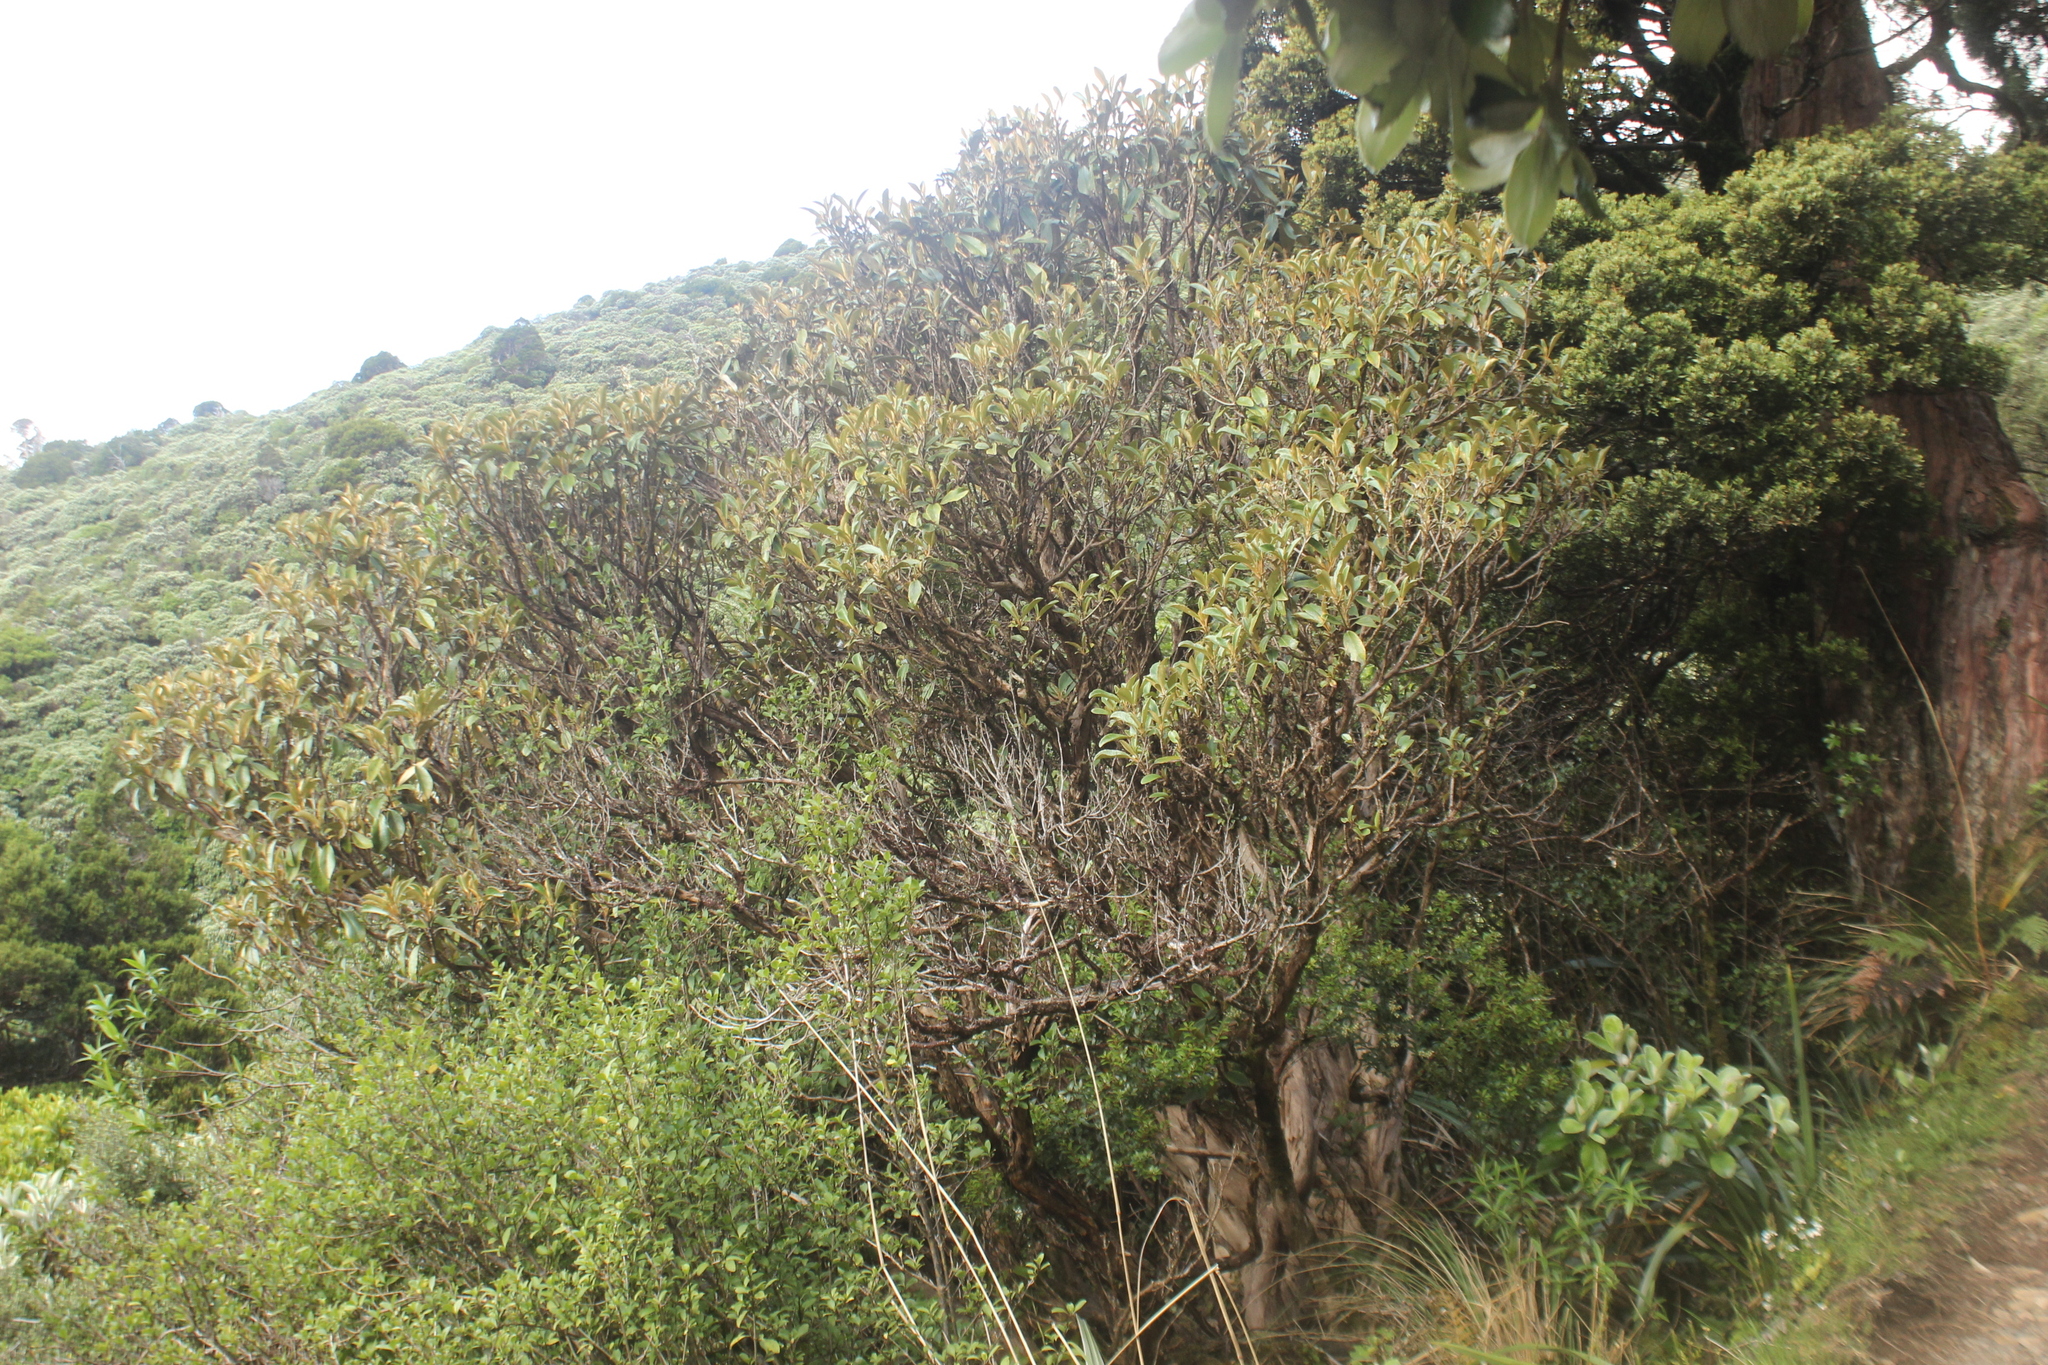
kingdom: Plantae
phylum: Tracheophyta
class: Magnoliopsida
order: Asterales
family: Asteraceae
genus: Brachyglottis
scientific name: Brachyglottis elaeagnifolia
